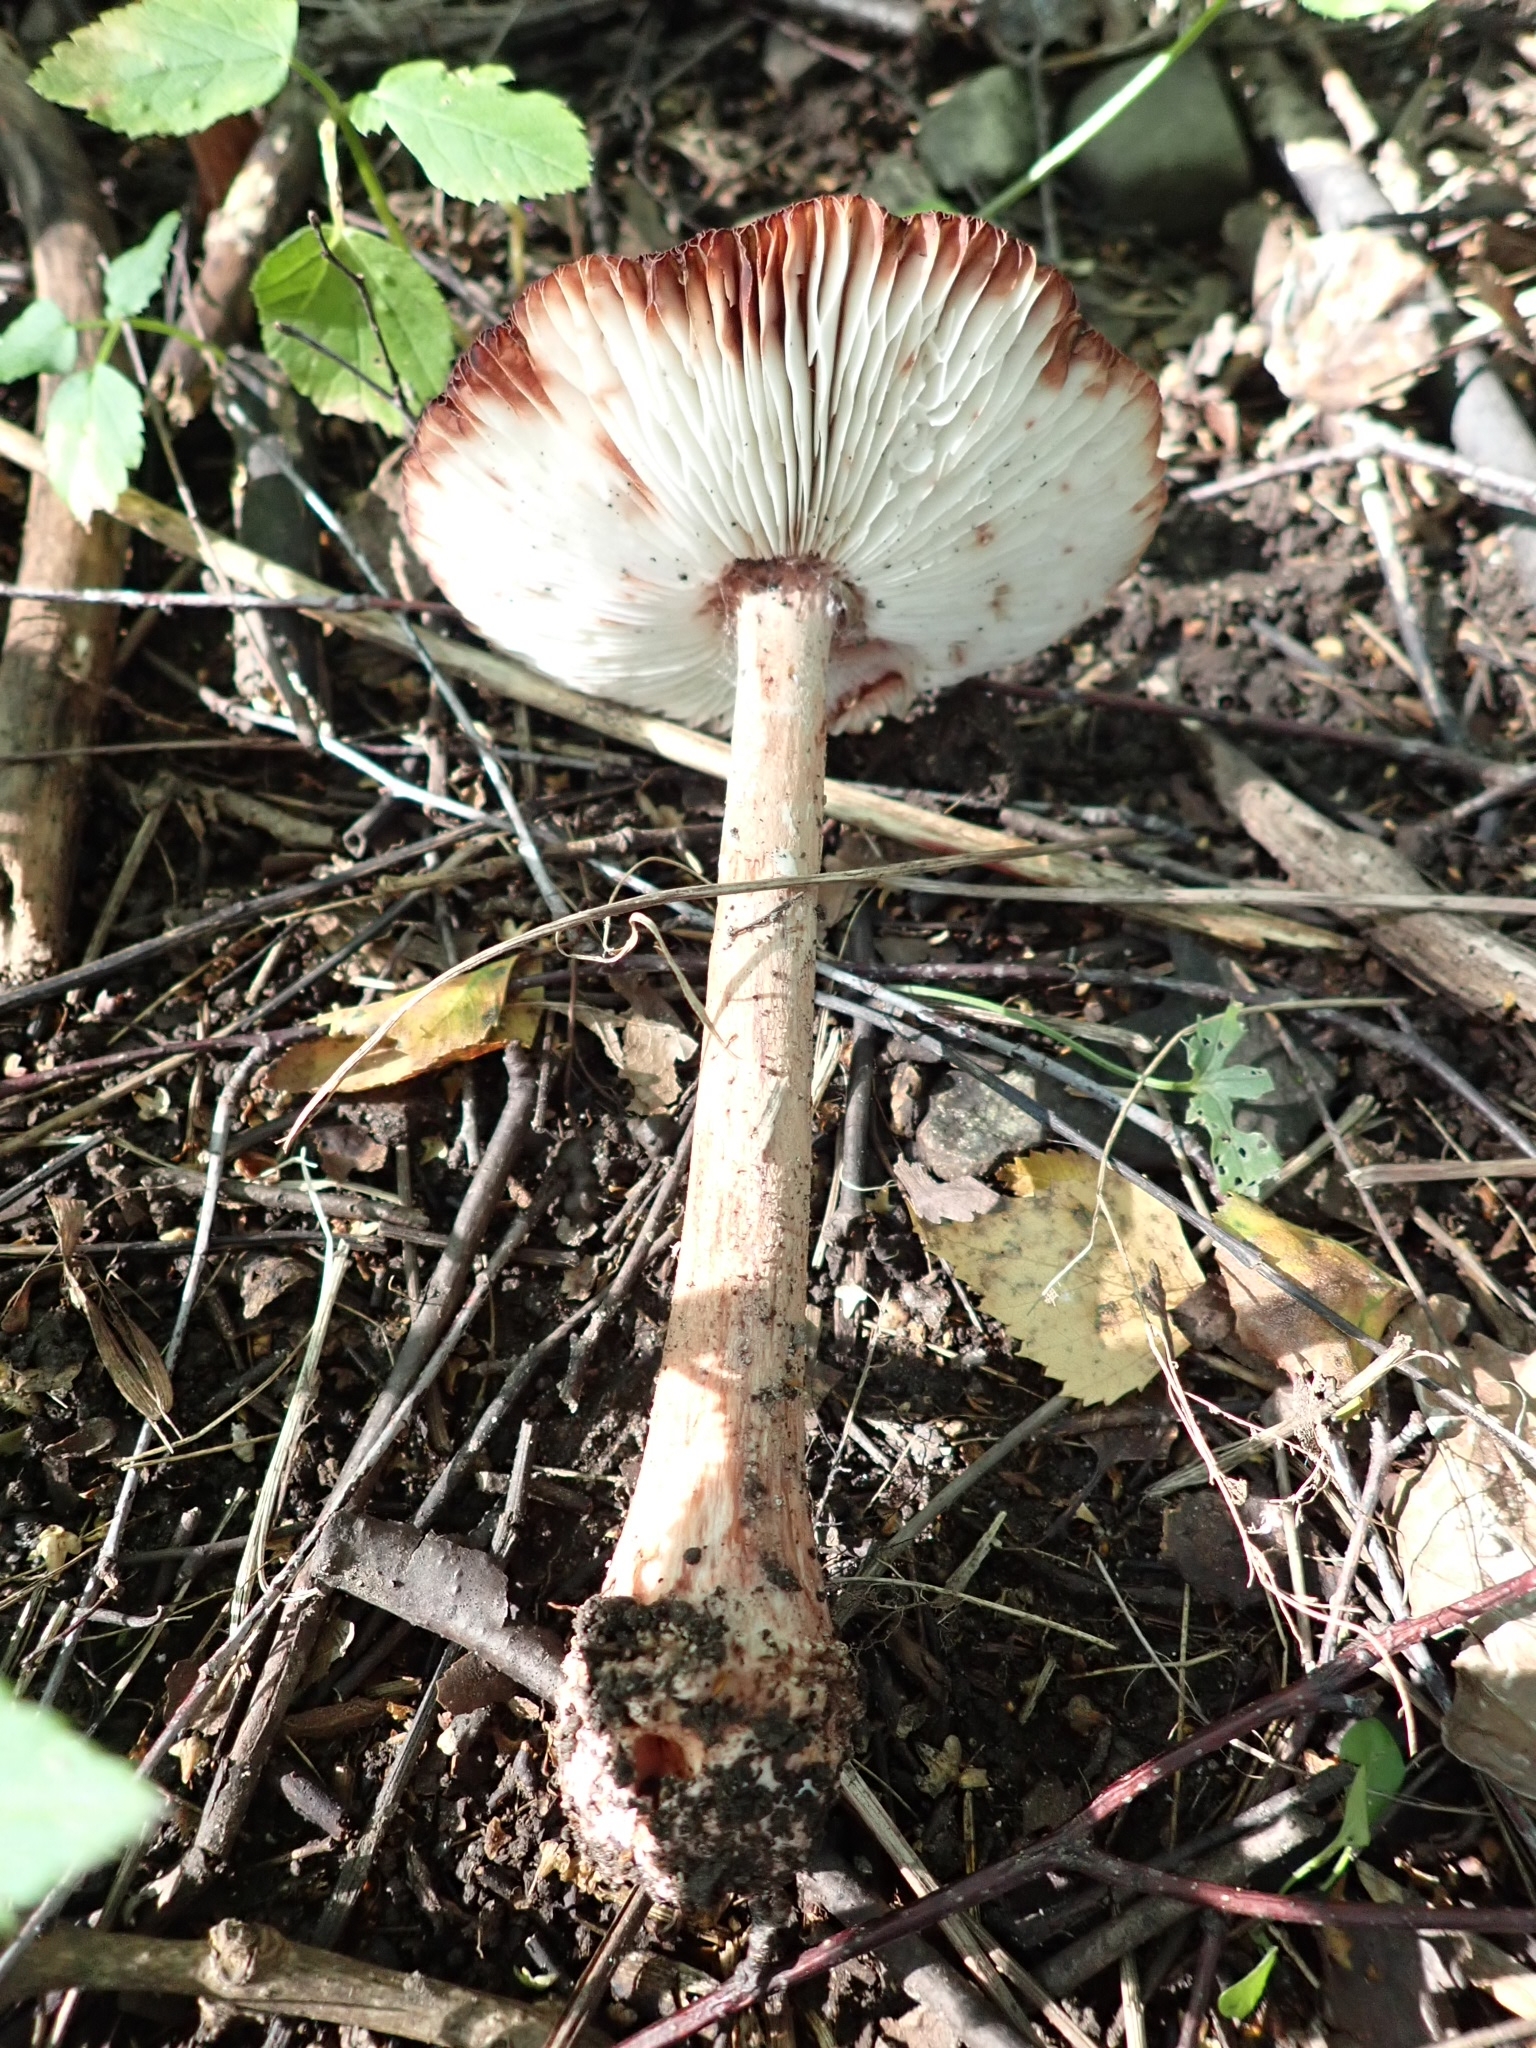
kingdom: Fungi
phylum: Basidiomycota
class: Agaricomycetes
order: Agaricales
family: Amanitaceae
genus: Amanita
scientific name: Amanita rubescens
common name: Blusher
